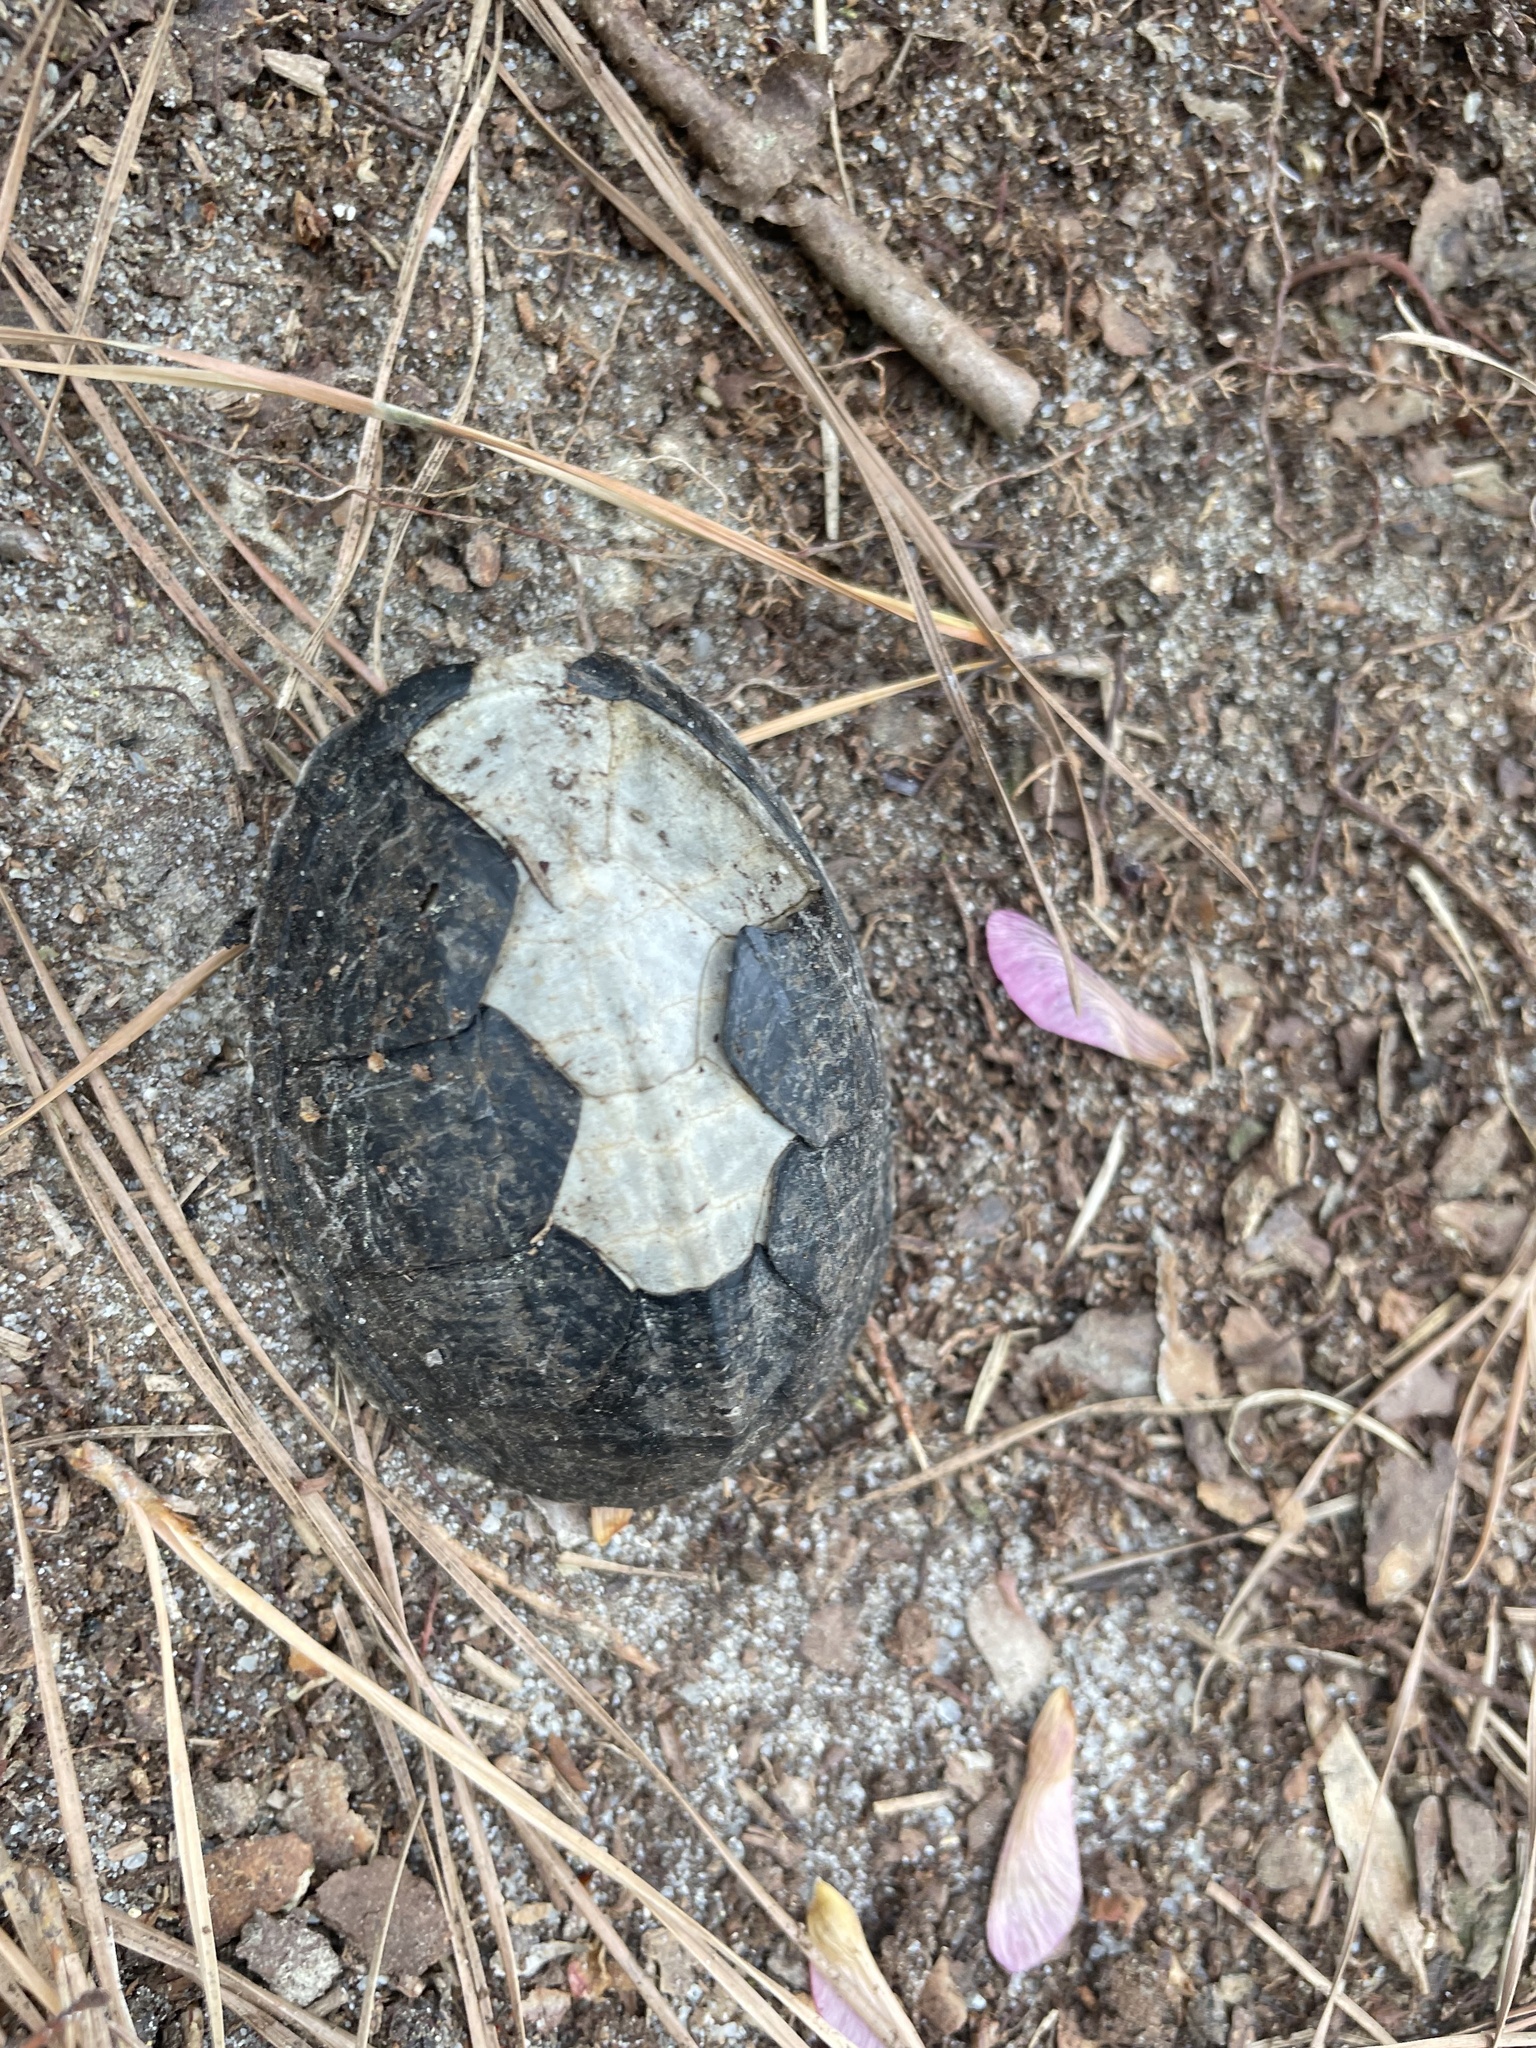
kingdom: Animalia
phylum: Chordata
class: Testudines
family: Kinosternidae
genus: Sternotherus
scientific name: Sternotherus odoratus
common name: Common musk turtle
